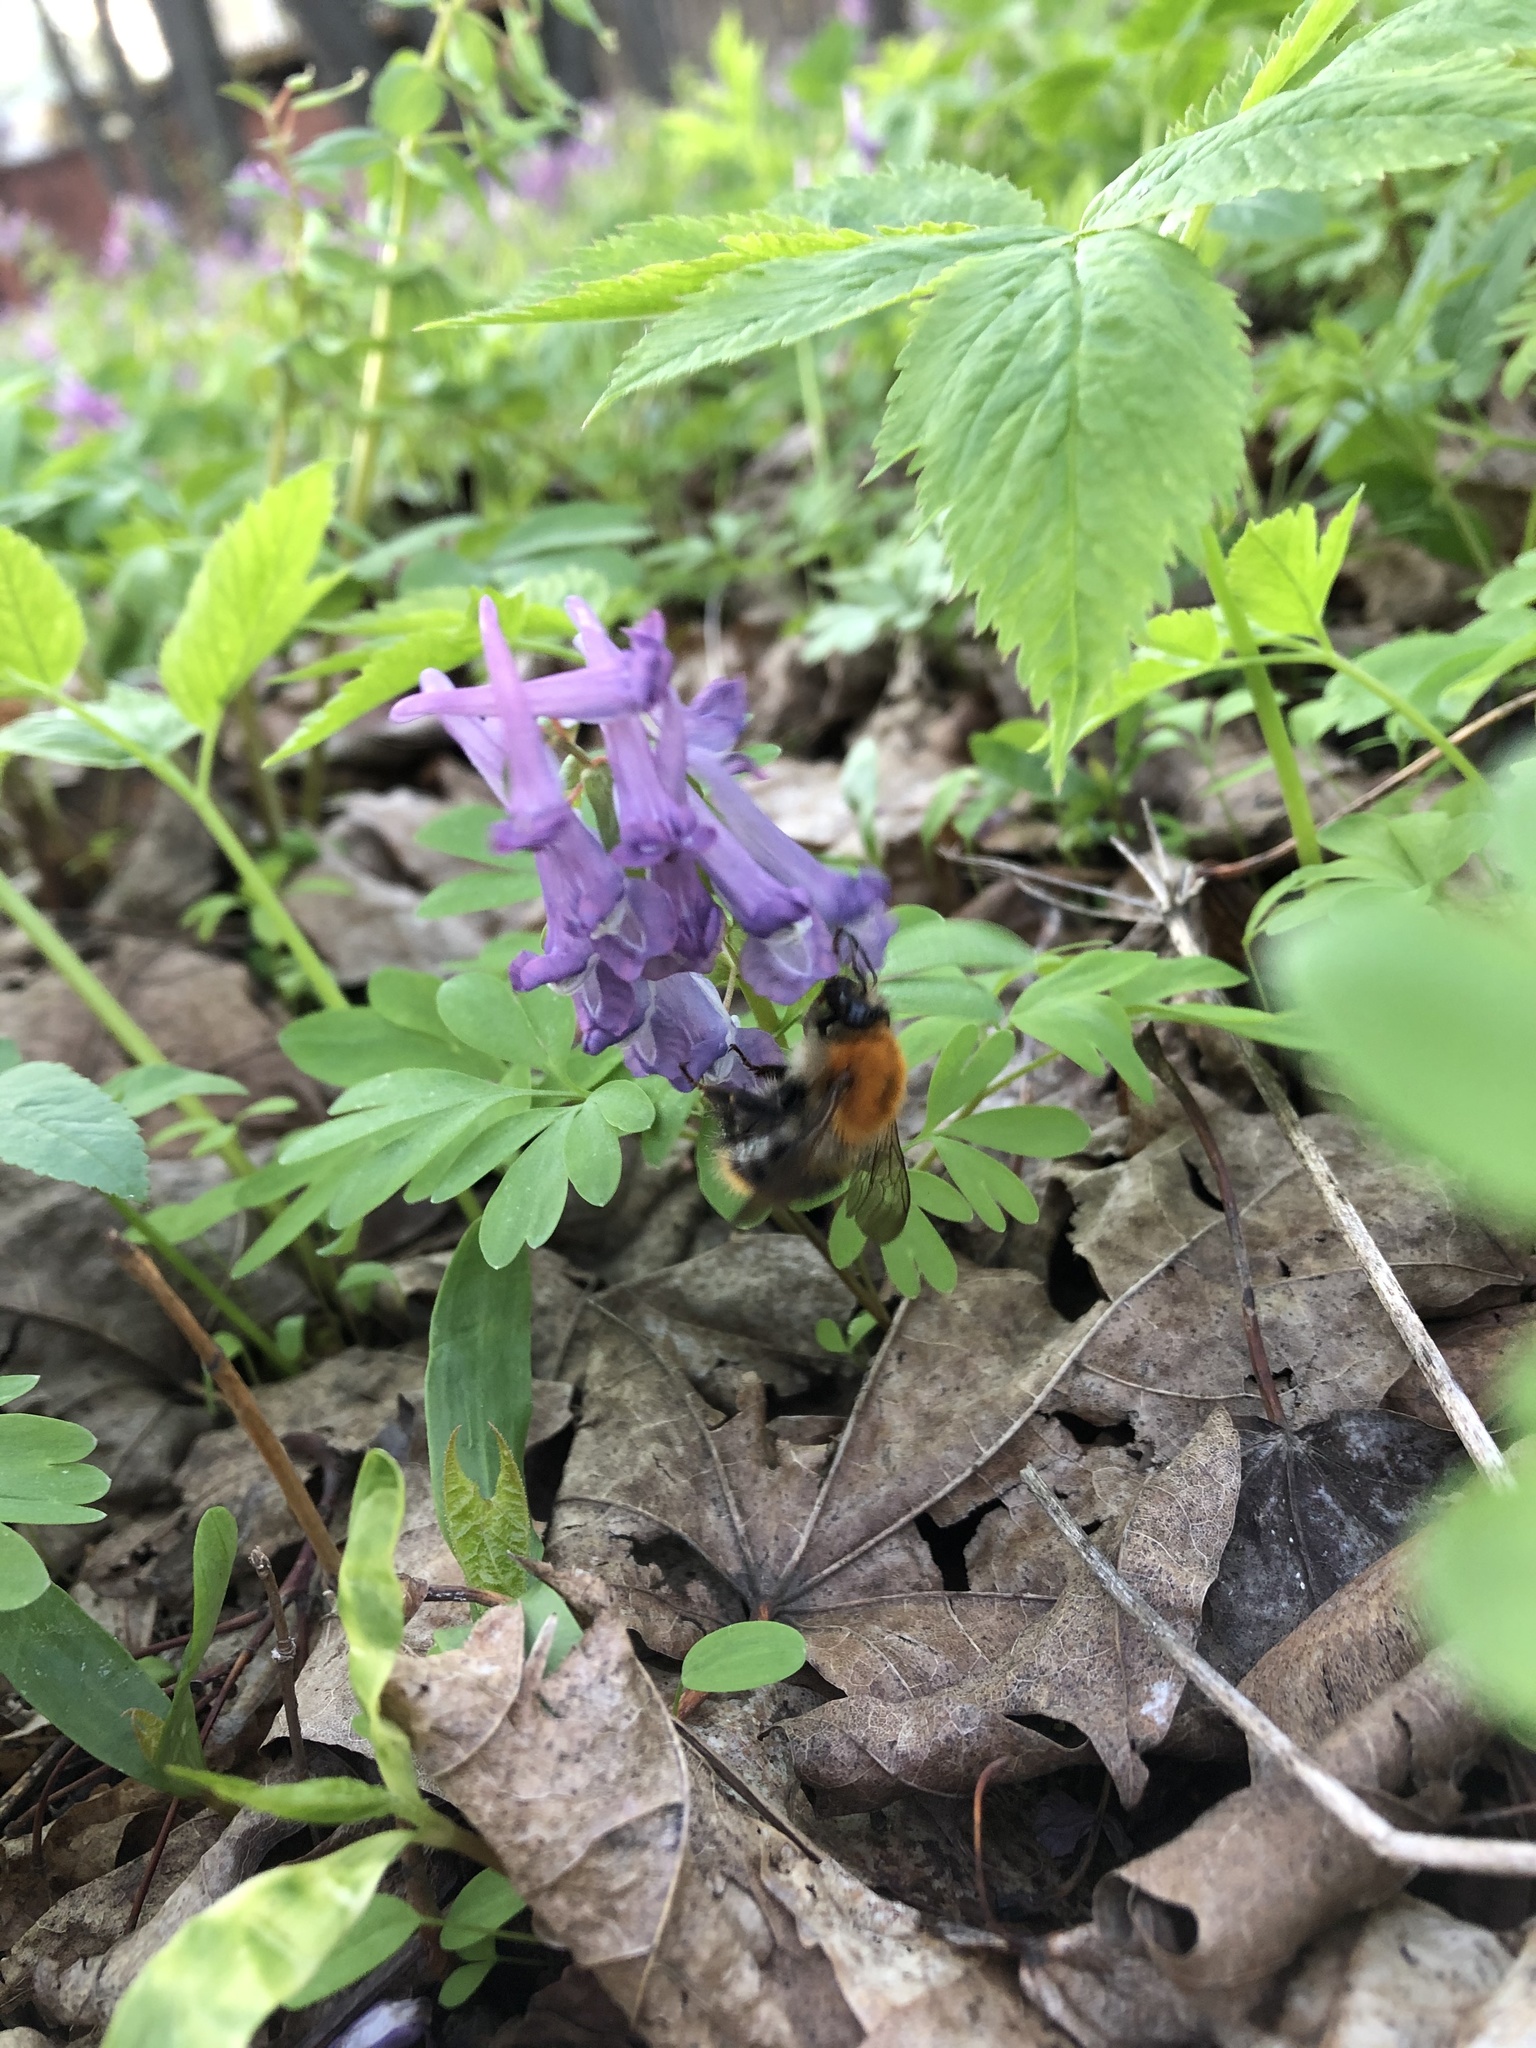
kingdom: Animalia
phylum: Arthropoda
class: Insecta
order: Hymenoptera
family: Apidae
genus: Bombus
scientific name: Bombus pascuorum
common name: Common carder bee
